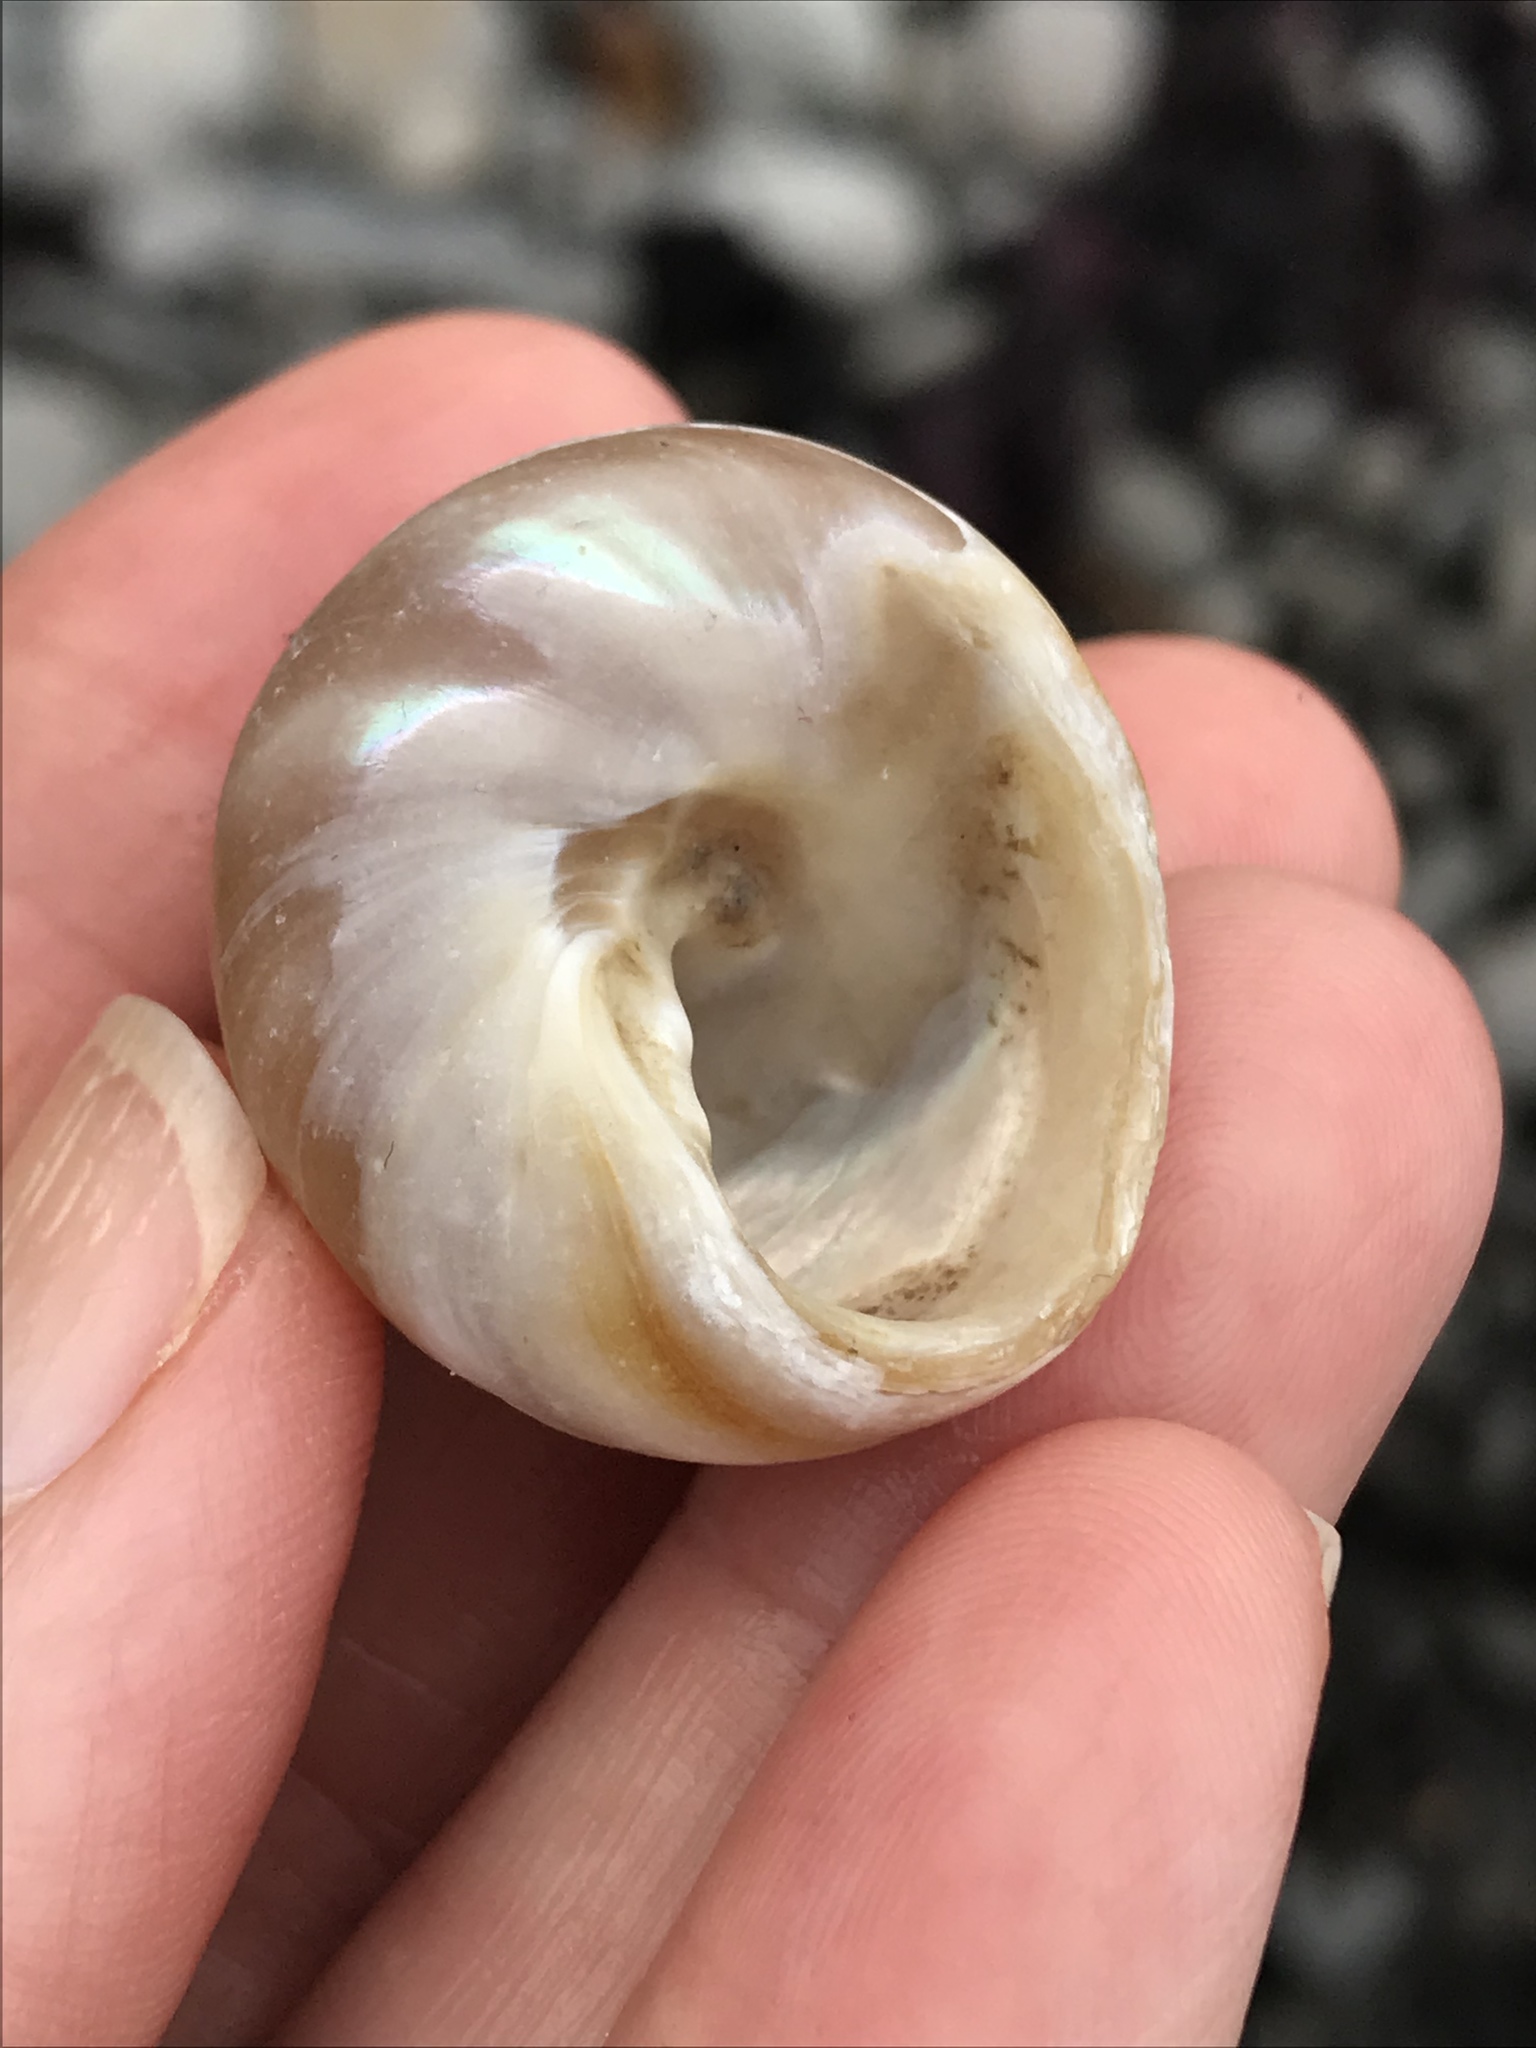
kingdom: Animalia
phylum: Mollusca
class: Gastropoda
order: Trochida
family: Tegulidae
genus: Tegula
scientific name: Tegula brunnea
